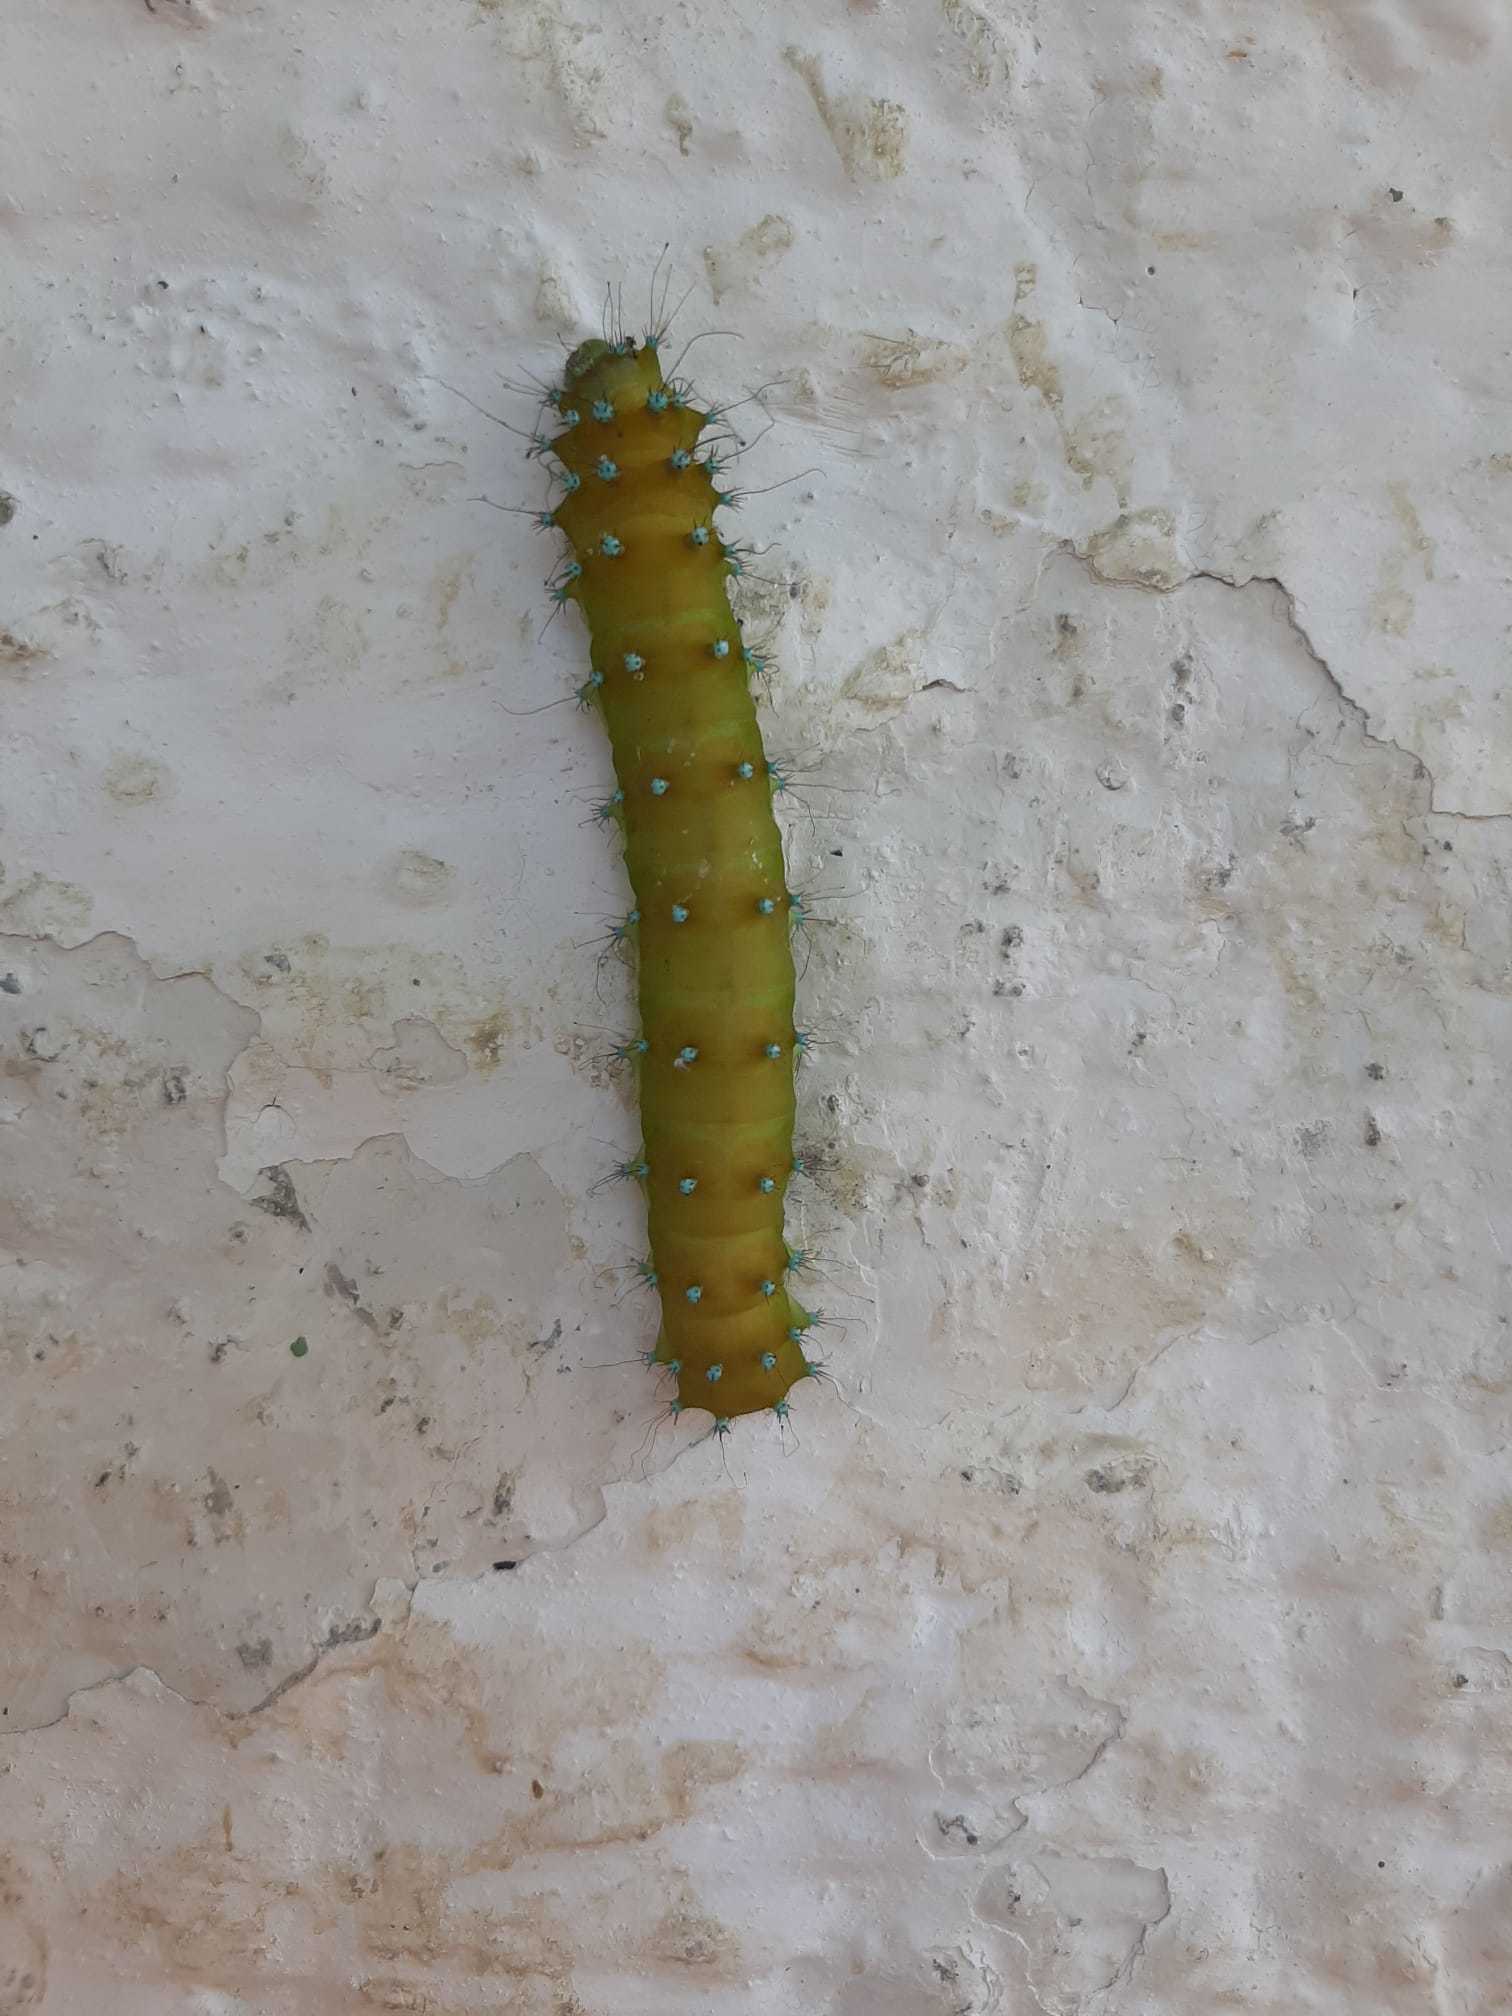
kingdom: Animalia
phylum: Arthropoda
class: Insecta
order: Lepidoptera
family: Saturniidae
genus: Saturnia
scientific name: Saturnia pyri
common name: Great peacock moth
